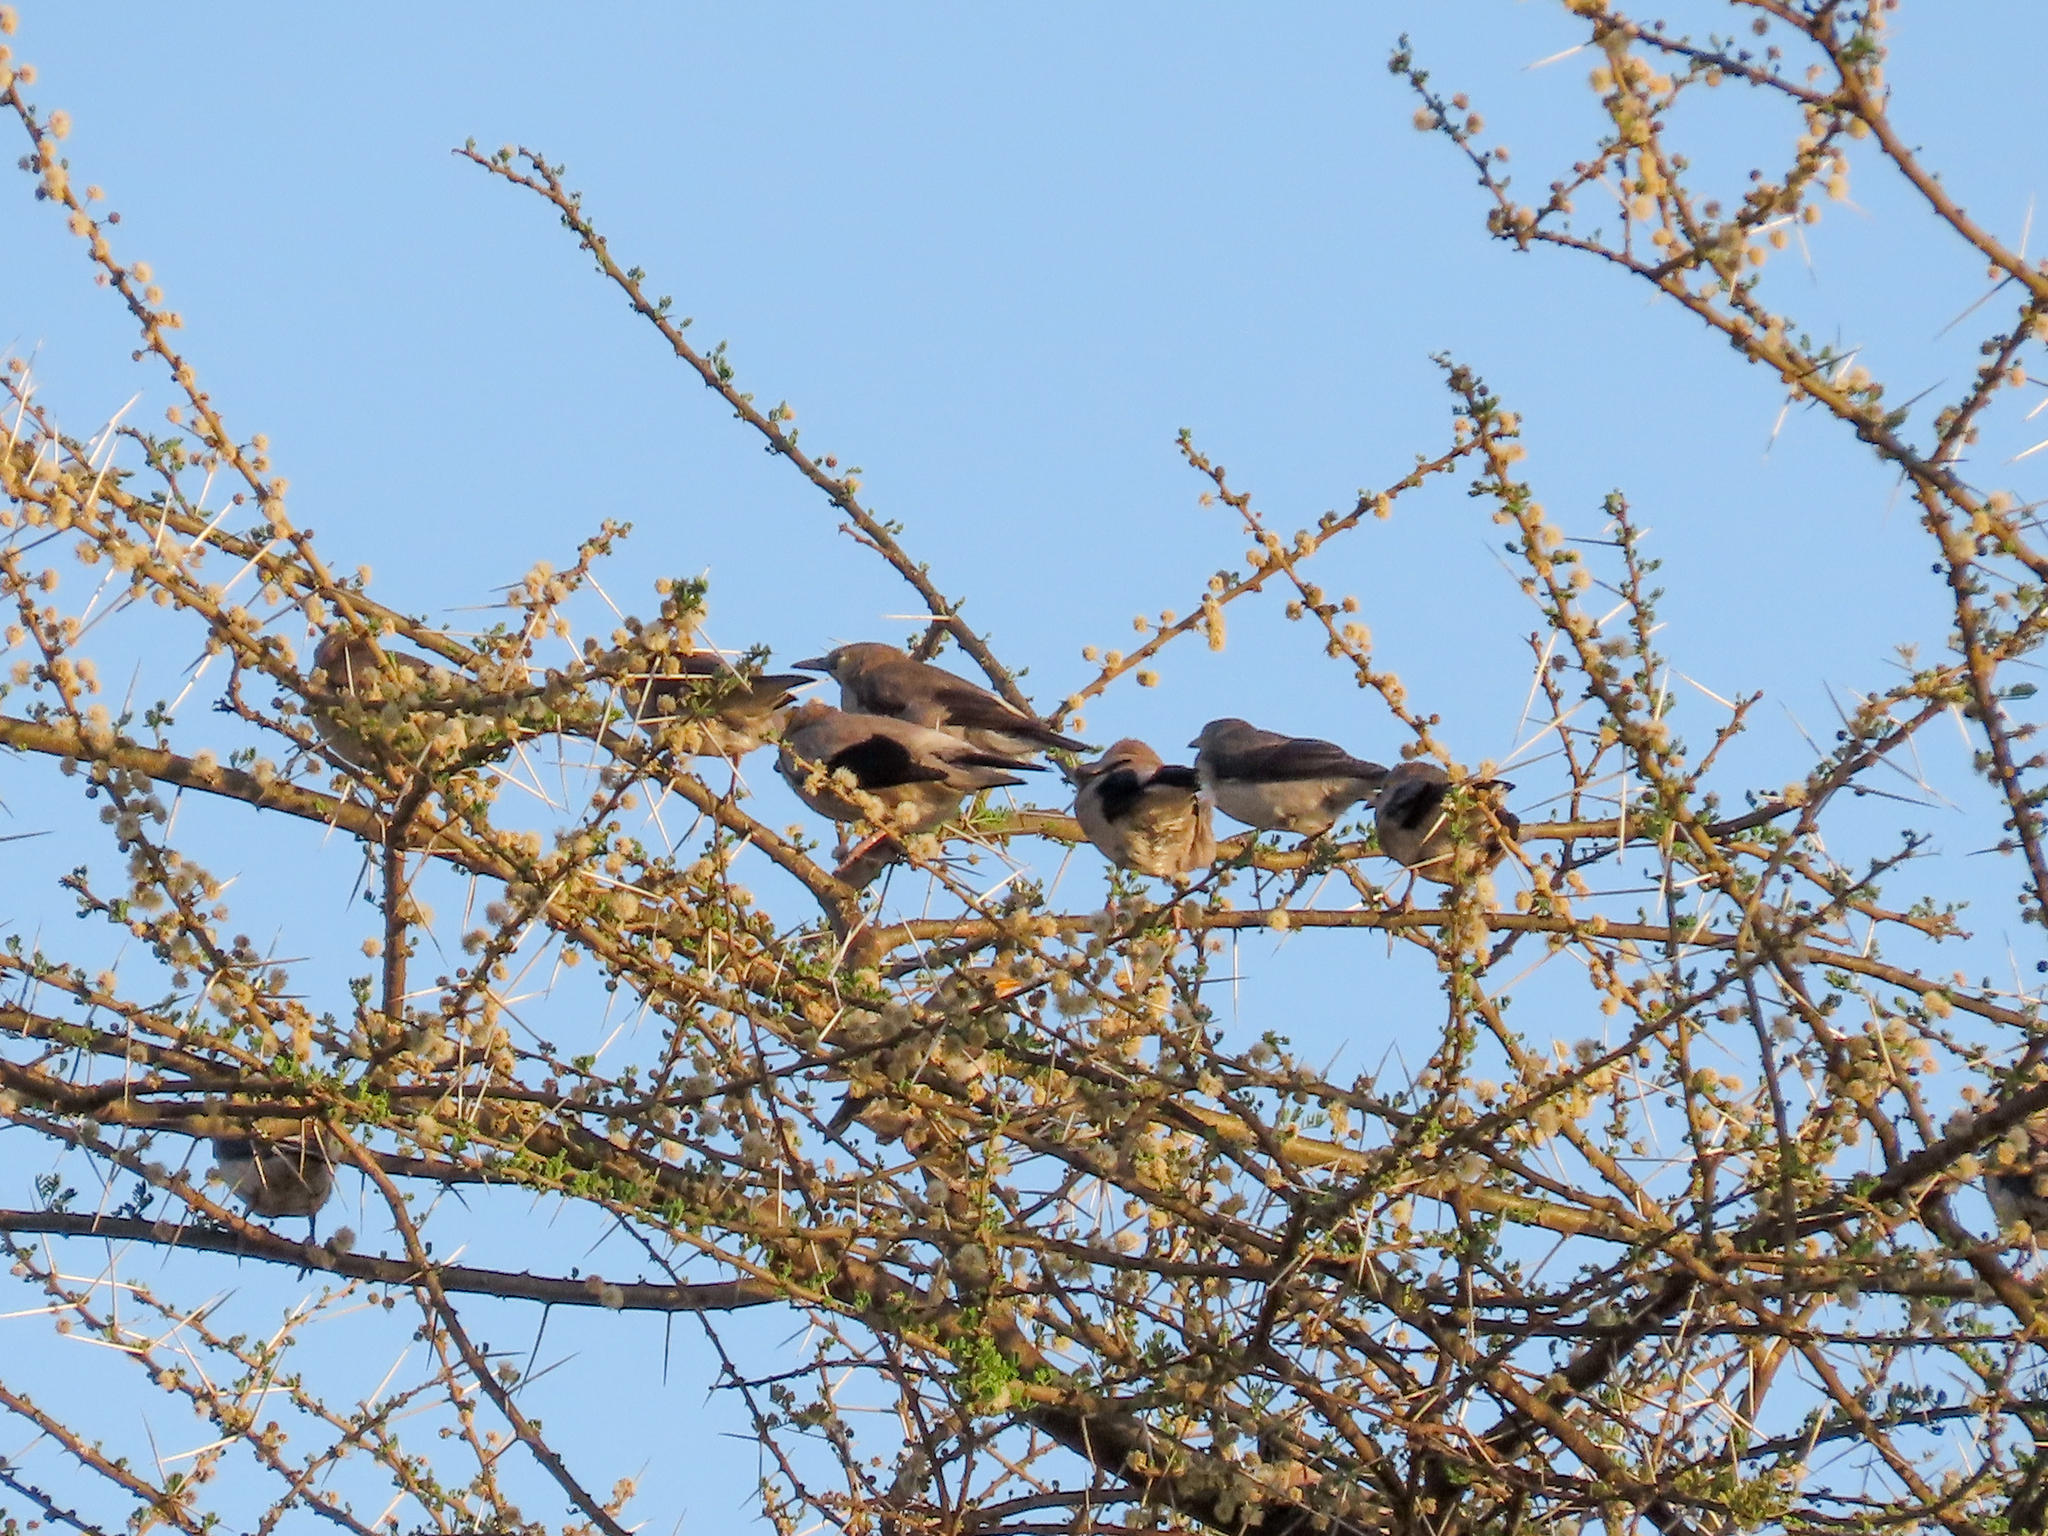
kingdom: Animalia
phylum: Chordata
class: Aves
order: Passeriformes
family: Sturnidae
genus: Creatophora
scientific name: Creatophora cinerea
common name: Wattled starling
